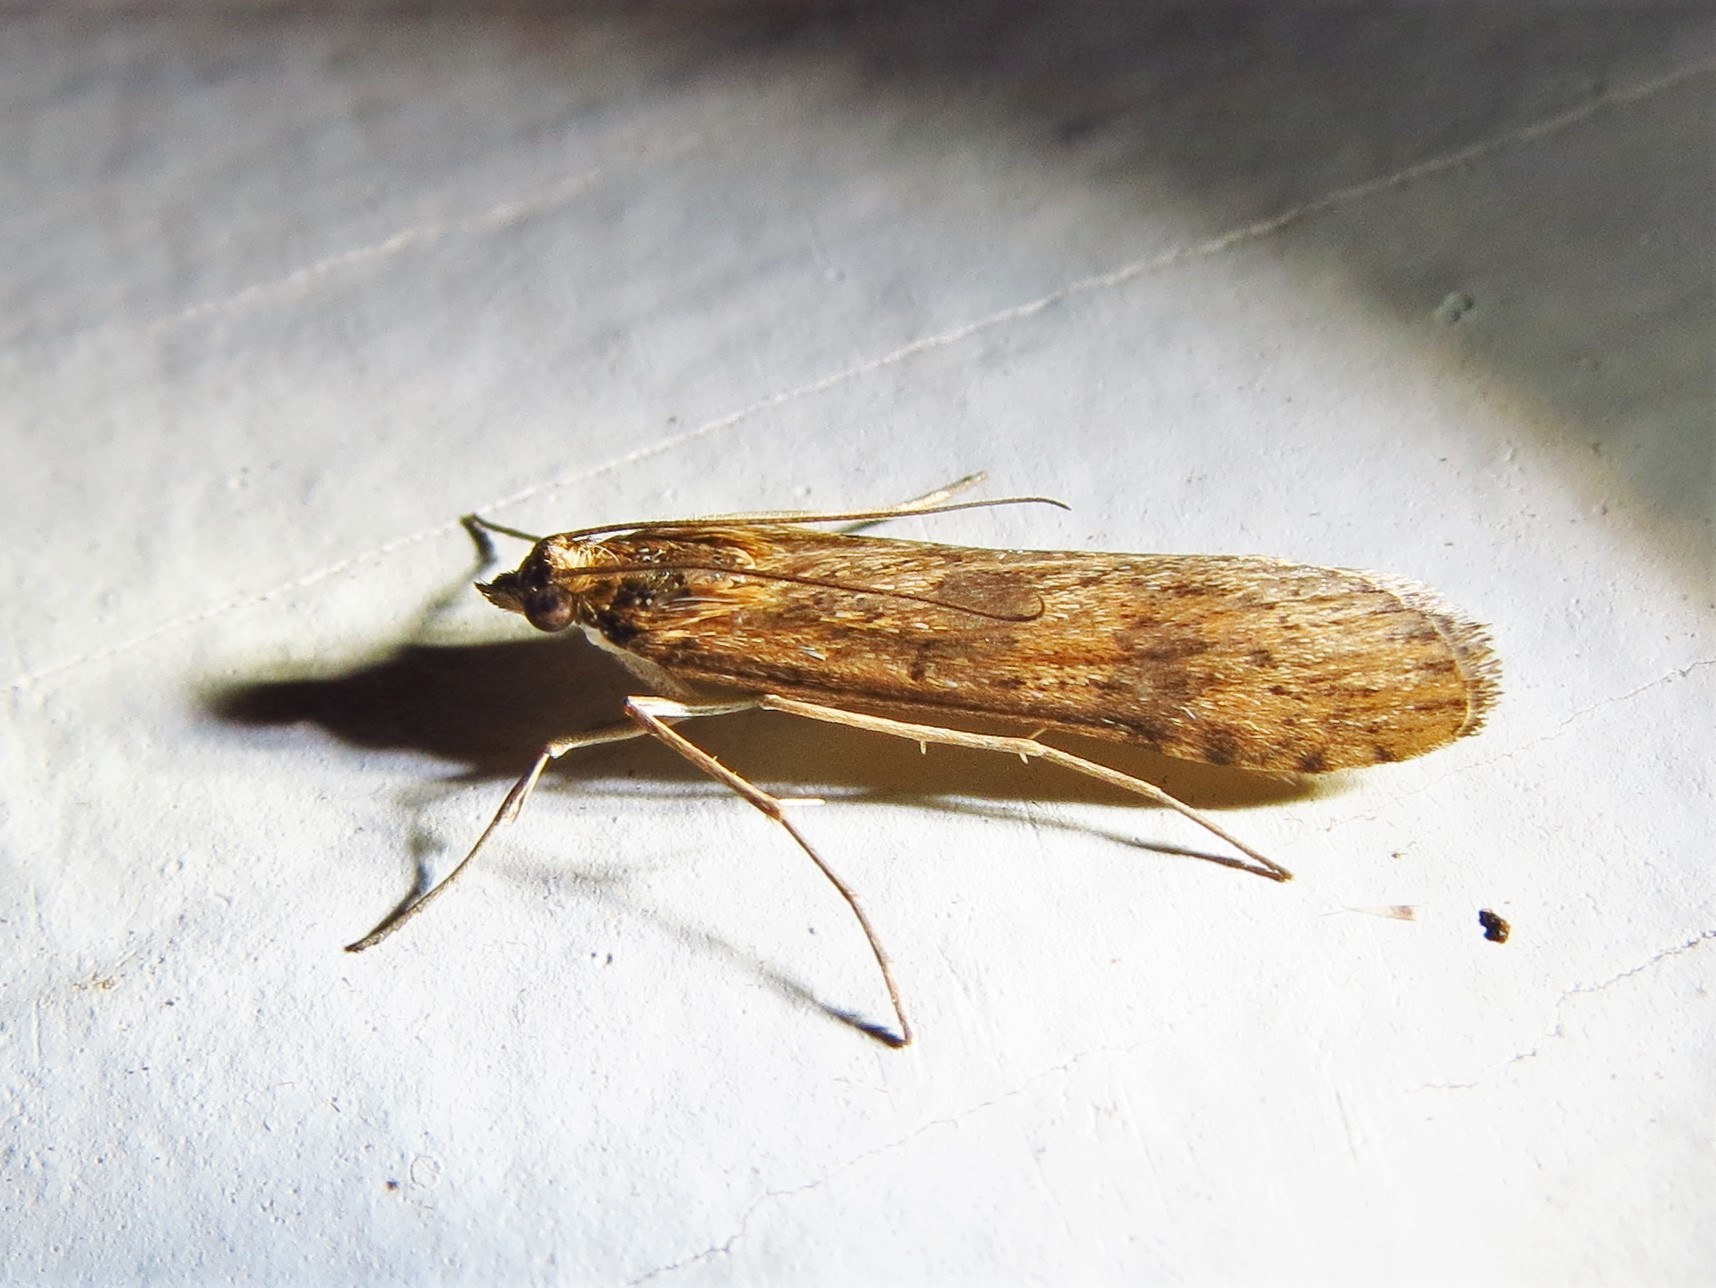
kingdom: Animalia
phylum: Arthropoda
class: Insecta
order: Lepidoptera
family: Crambidae
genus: Nomophila
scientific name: Nomophila nearctica
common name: American rush veneer
